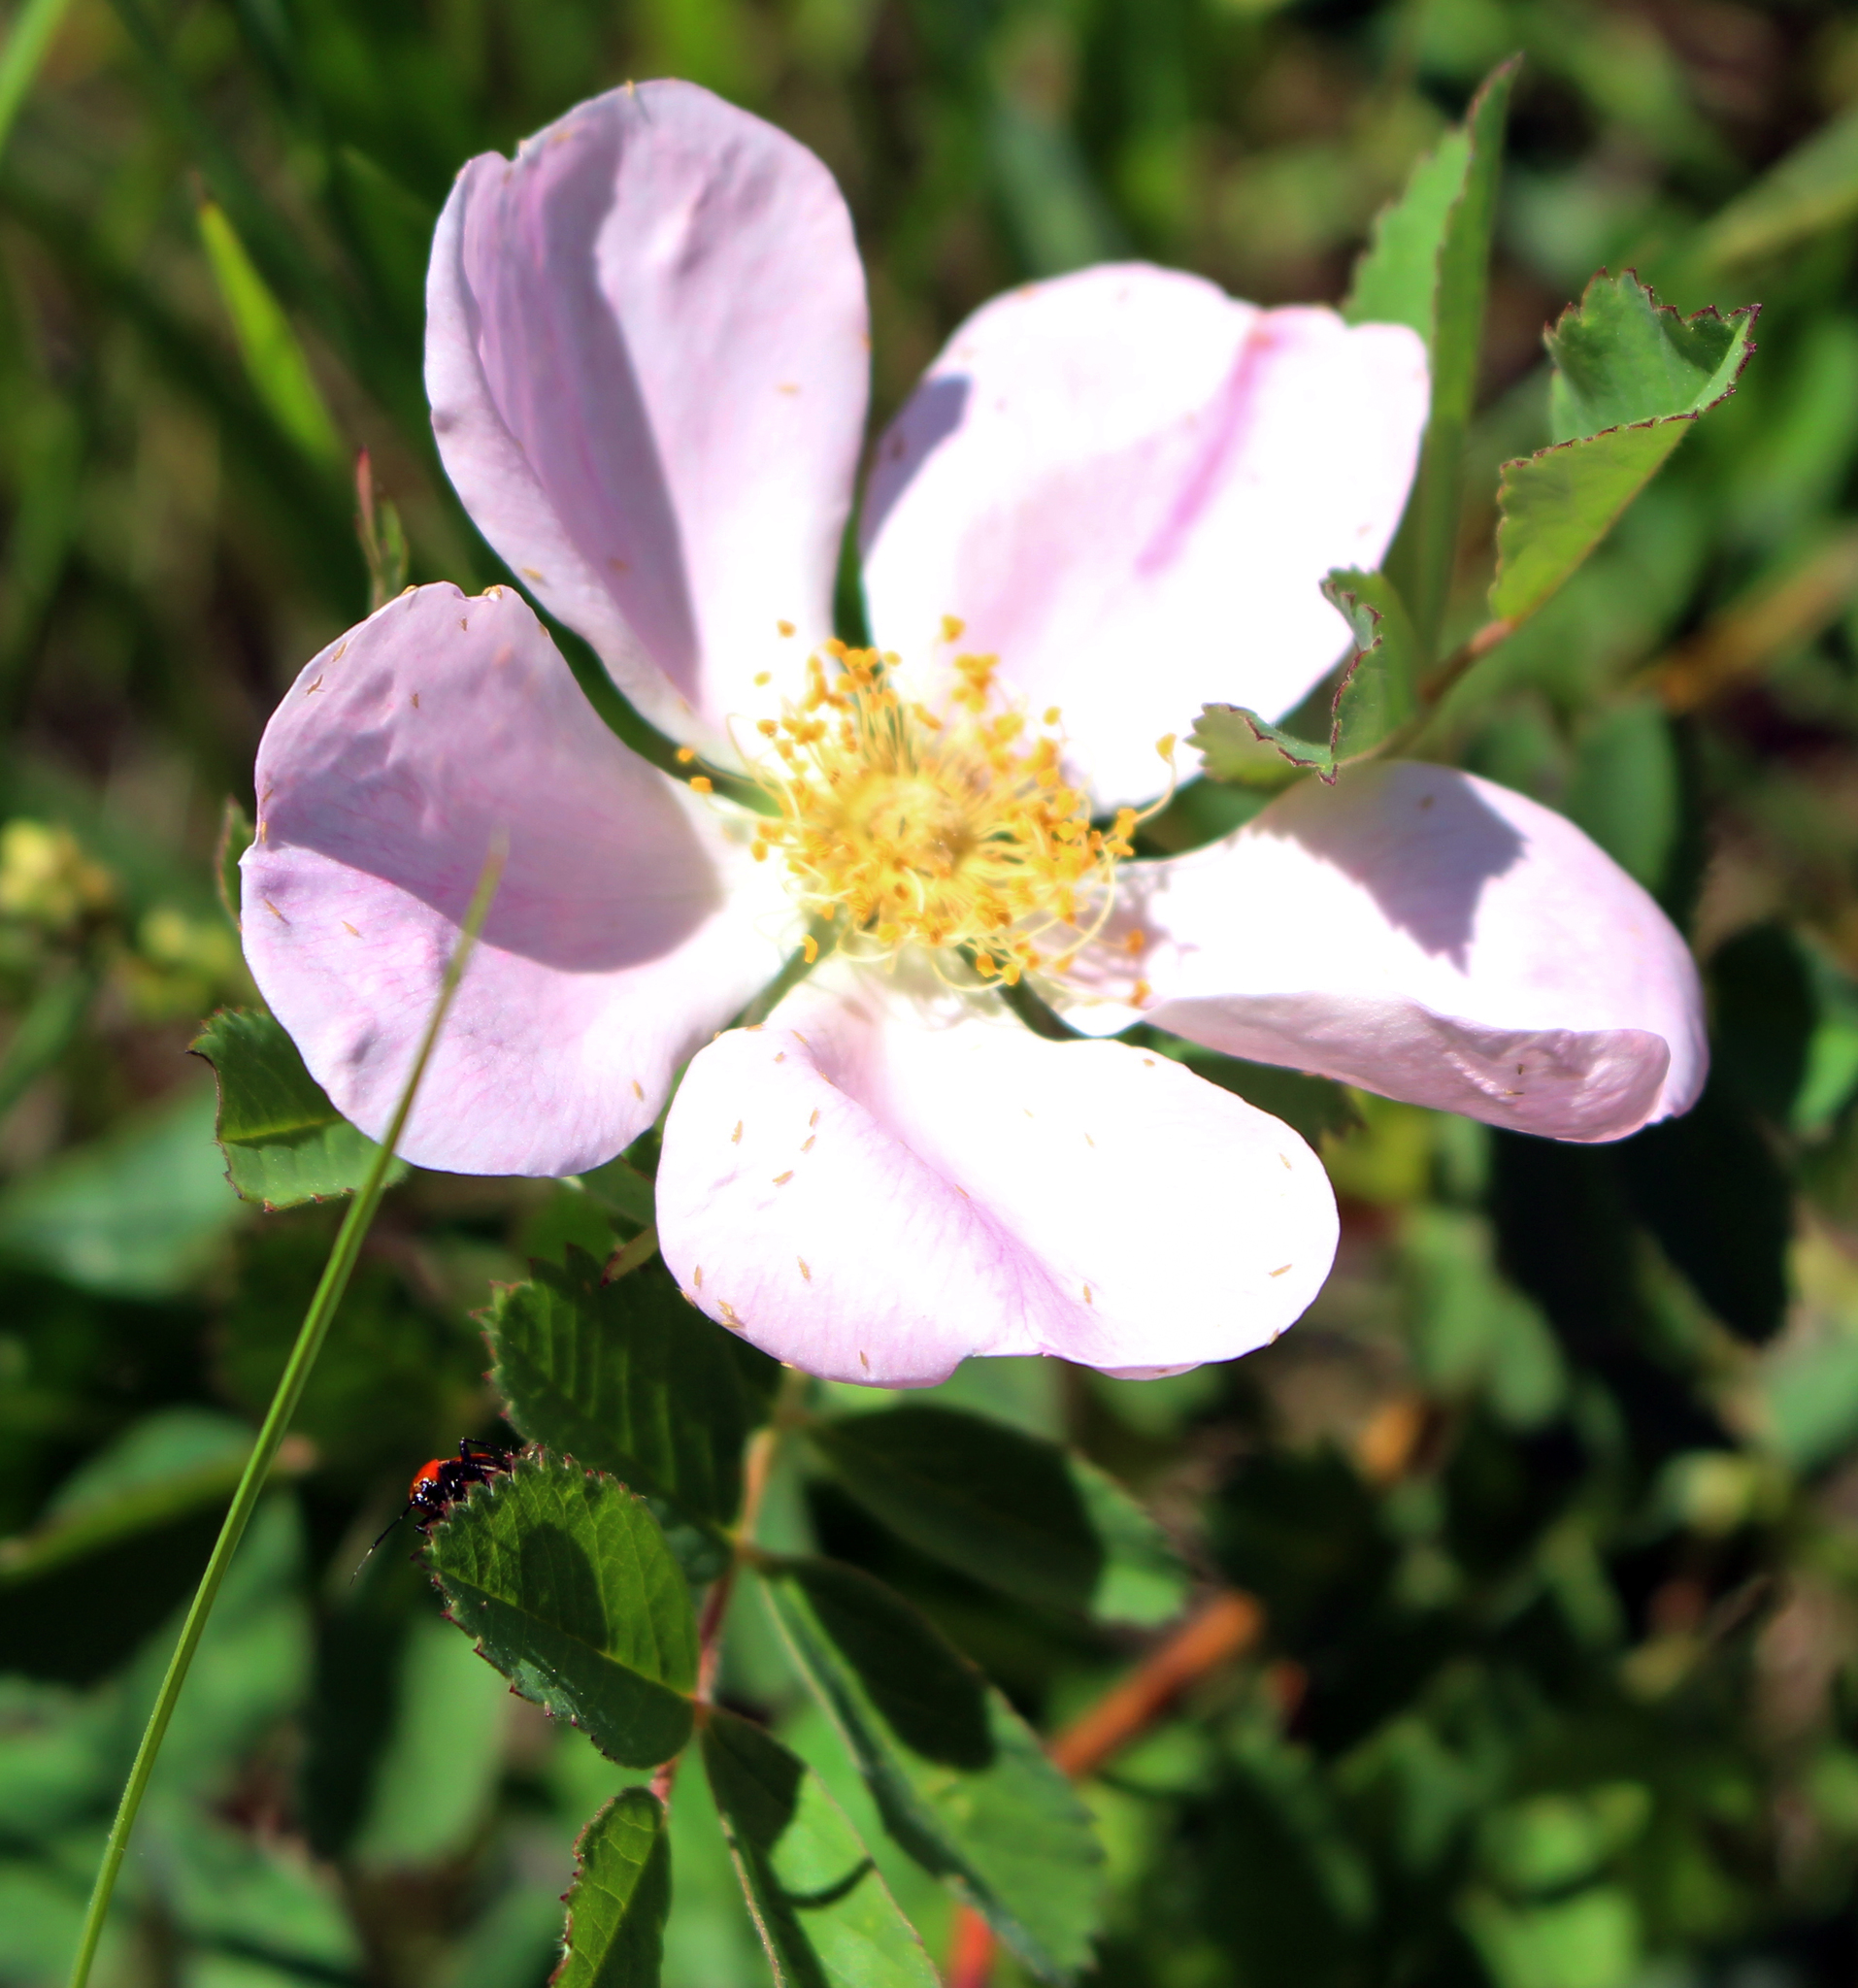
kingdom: Plantae
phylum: Tracheophyta
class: Magnoliopsida
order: Rosales
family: Rosaceae
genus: Rosa
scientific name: Rosa woodsii
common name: Woods's rose
